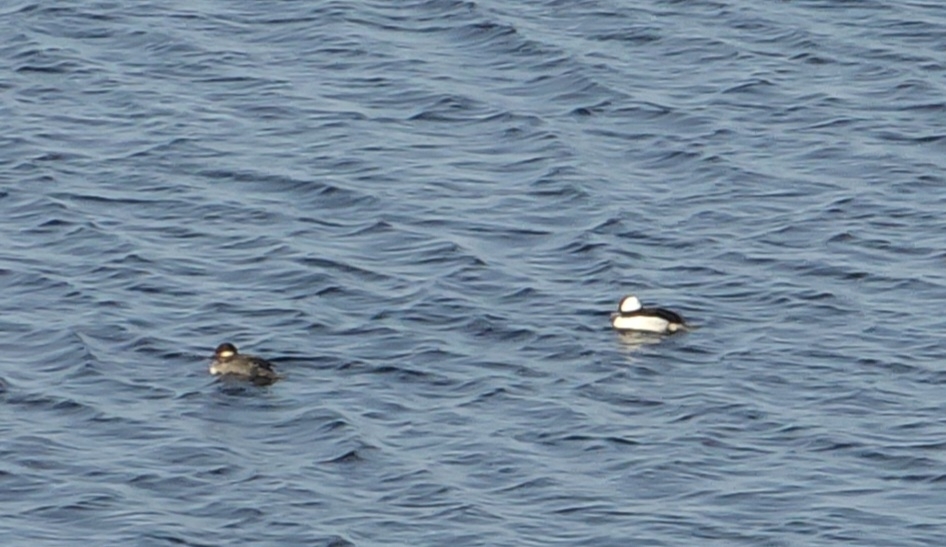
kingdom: Animalia
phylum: Chordata
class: Aves
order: Anseriformes
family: Anatidae
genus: Bucephala
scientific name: Bucephala albeola
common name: Bufflehead
